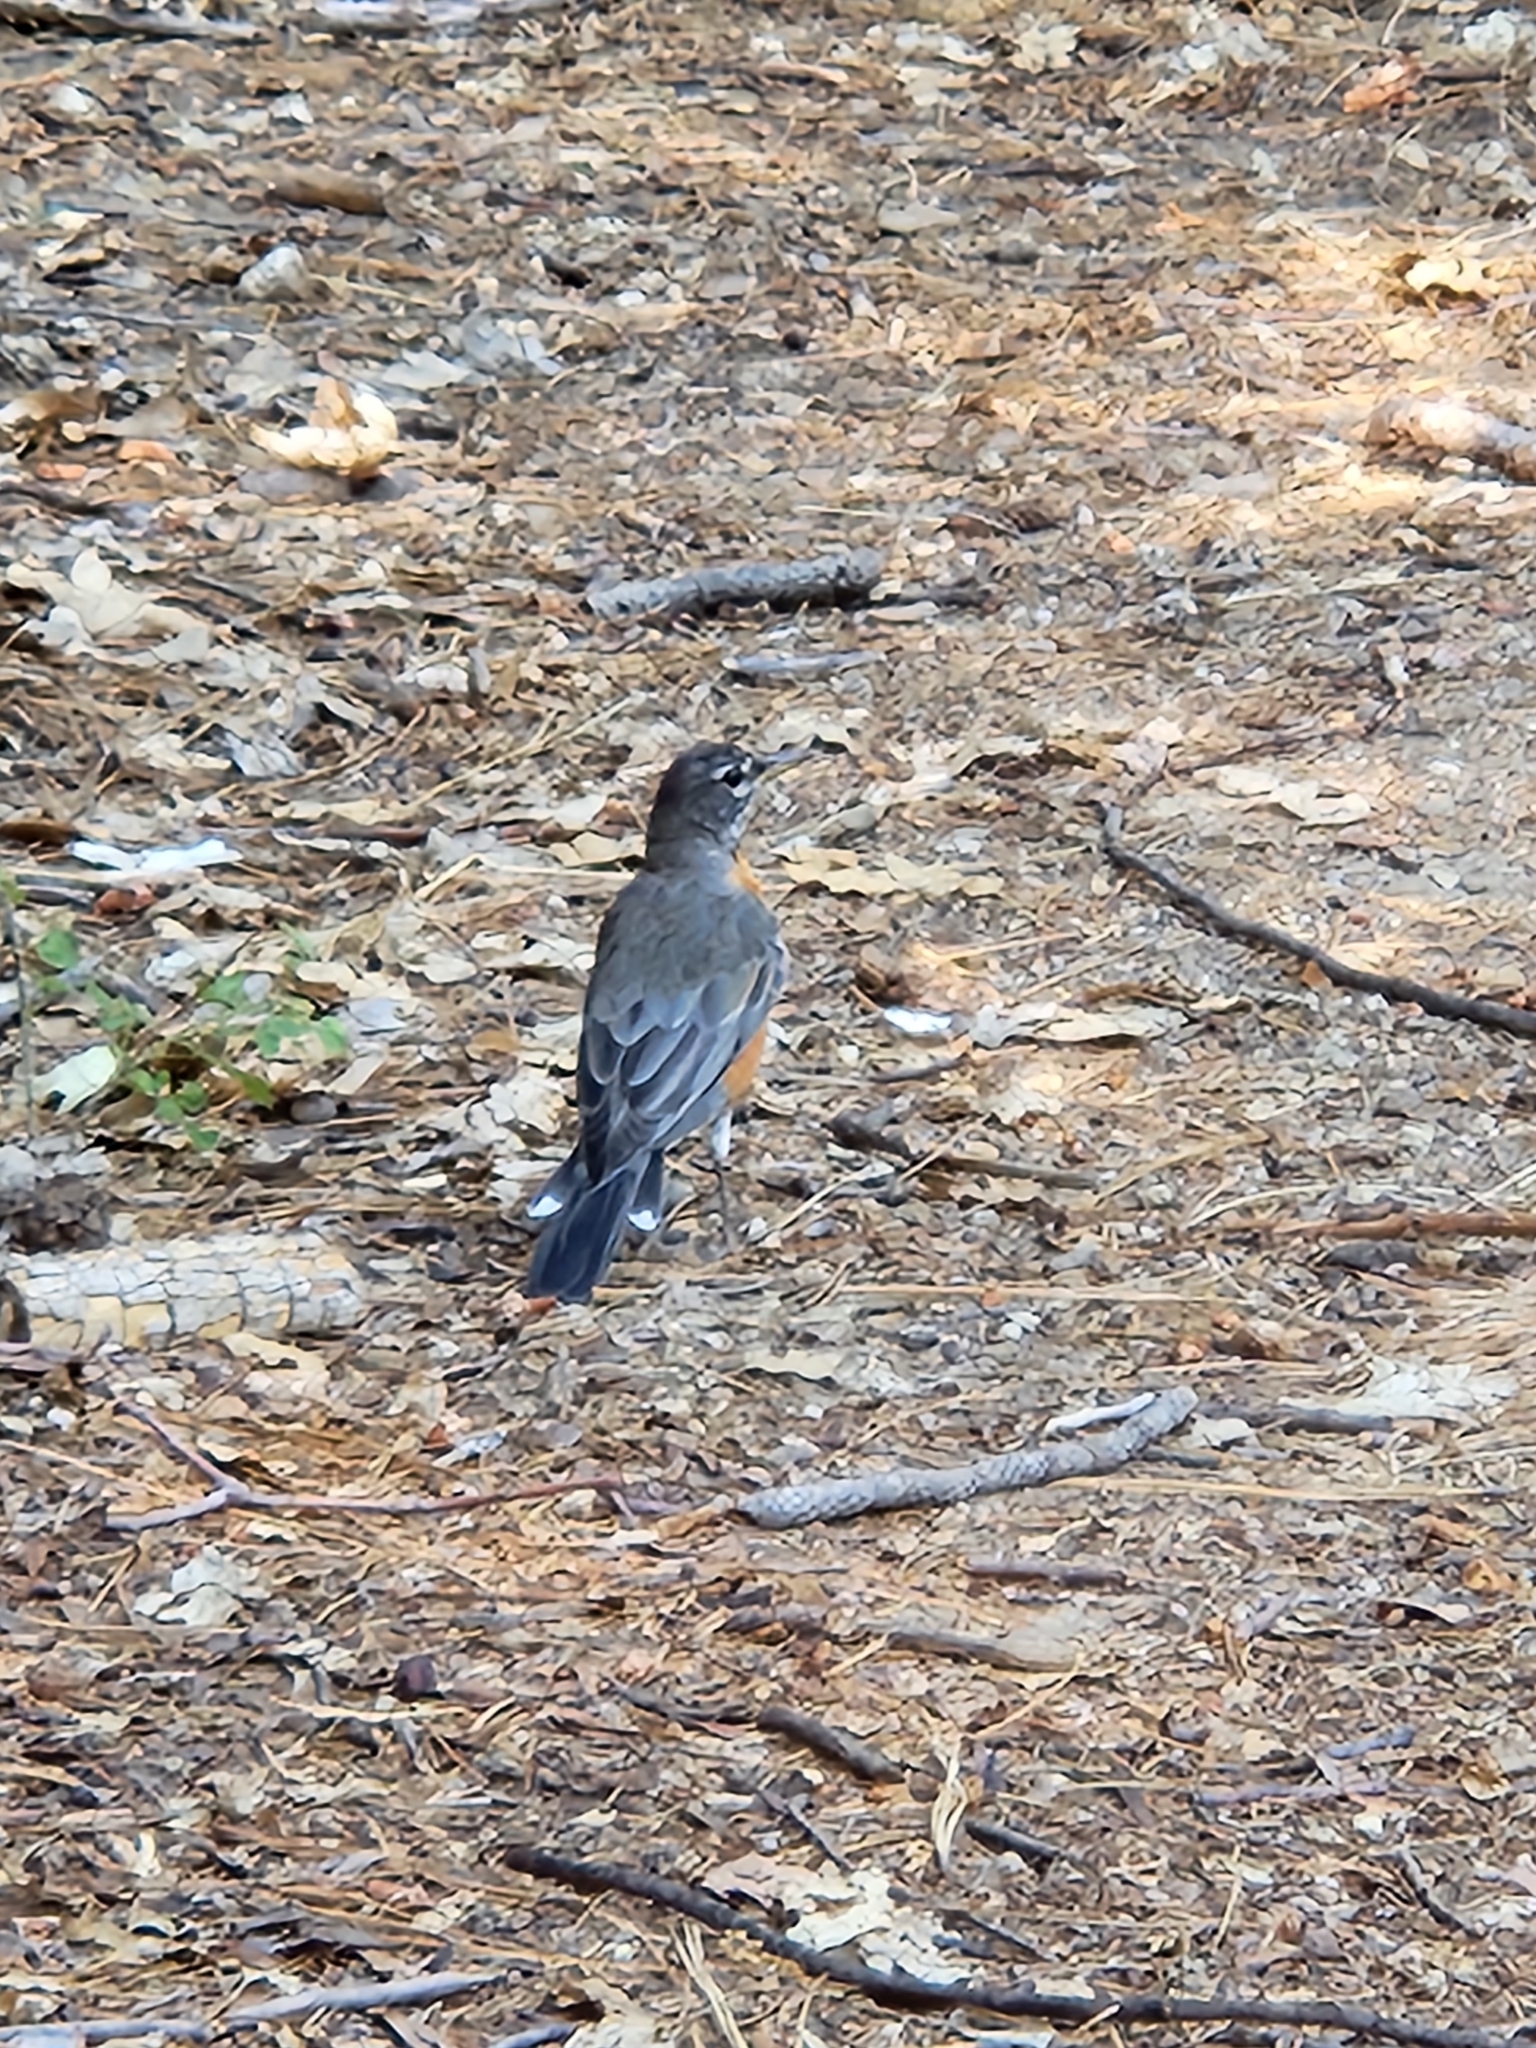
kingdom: Animalia
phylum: Chordata
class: Aves
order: Passeriformes
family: Turdidae
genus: Turdus
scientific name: Turdus migratorius
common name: American robin
